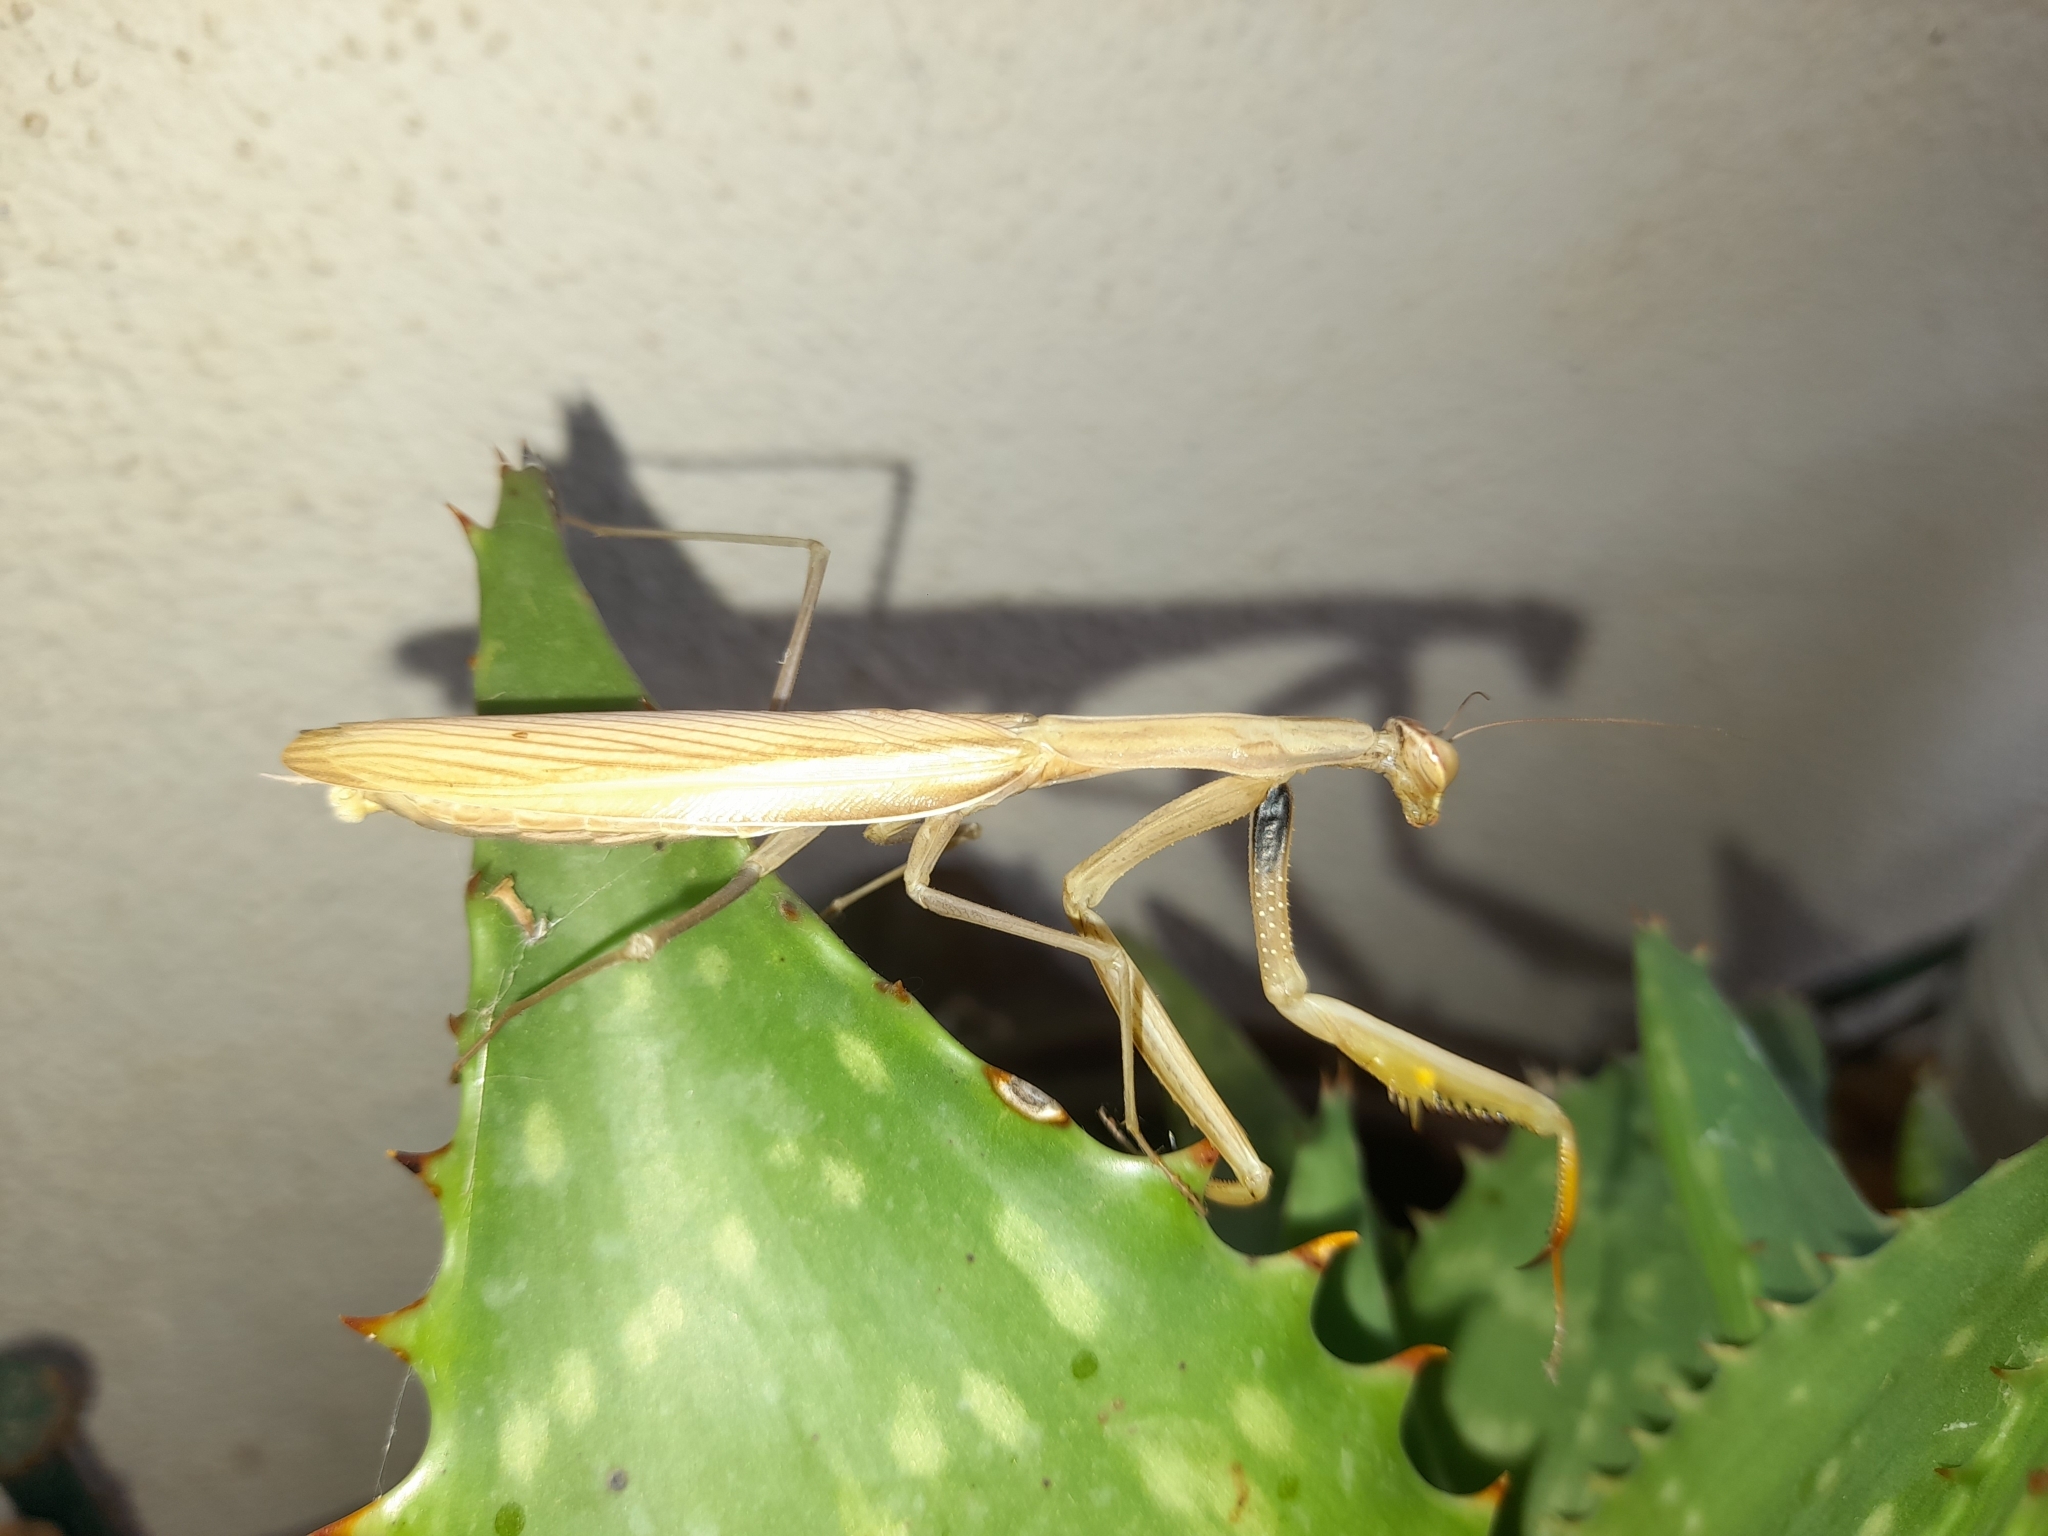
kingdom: Animalia
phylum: Arthropoda
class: Insecta
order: Mantodea
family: Mantidae
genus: Mantis
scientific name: Mantis religiosa
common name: Praying mantis
